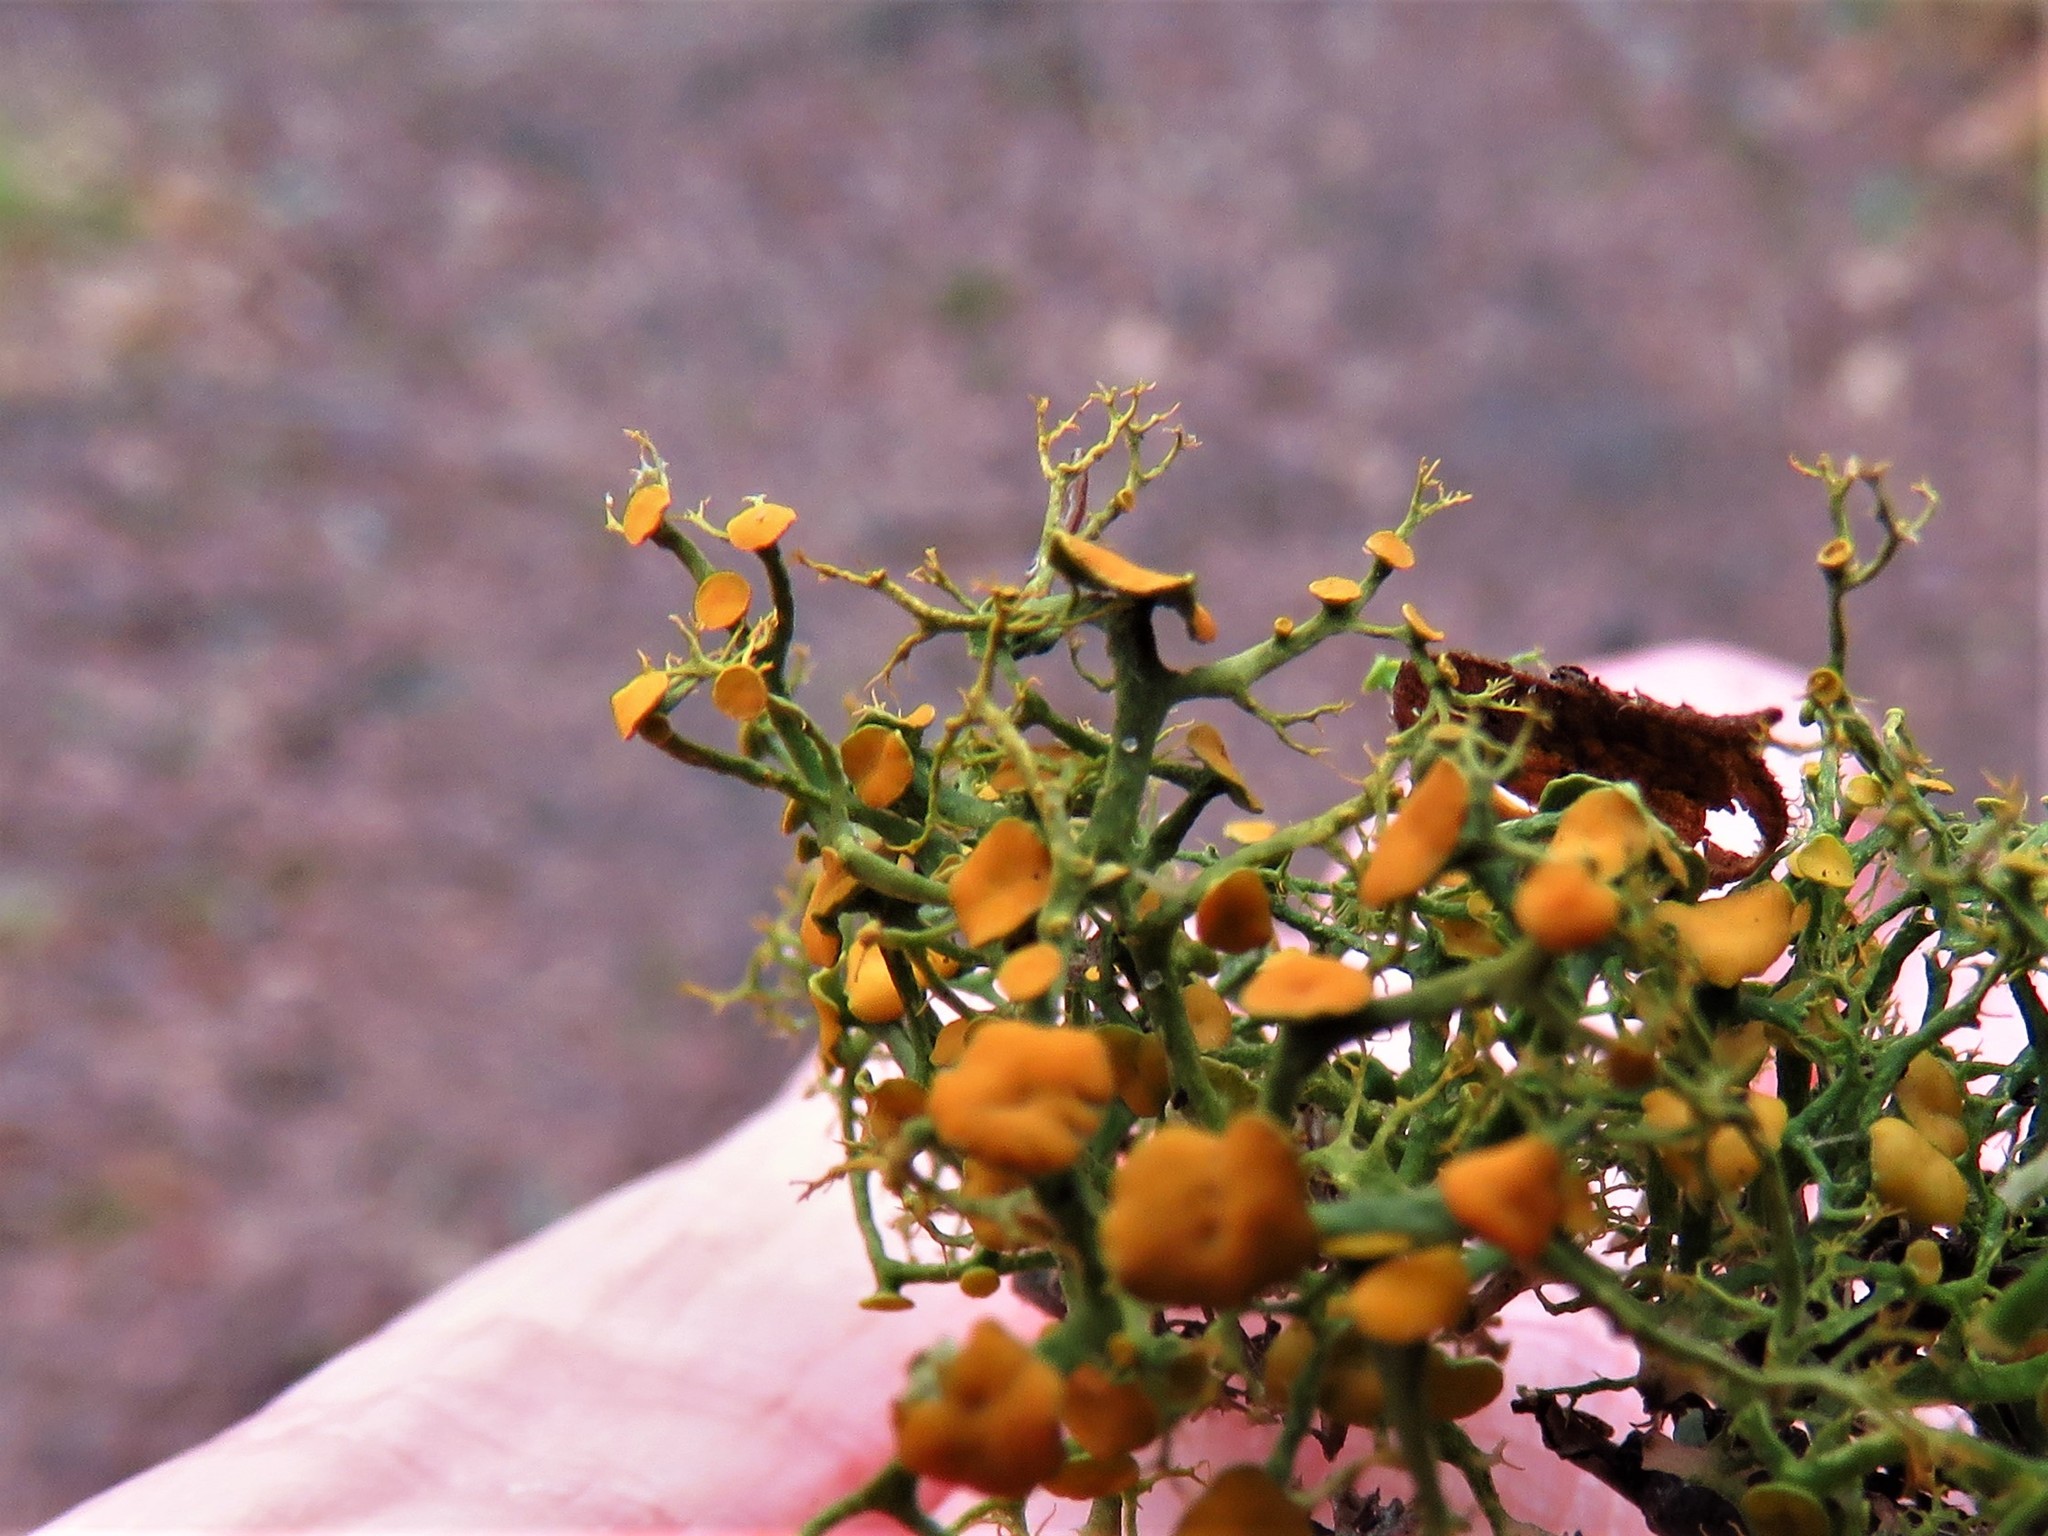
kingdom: Fungi
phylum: Ascomycota
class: Lecanoromycetes
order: Teloschistales
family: Teloschistaceae
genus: Teloschistes
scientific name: Teloschistes exilis
